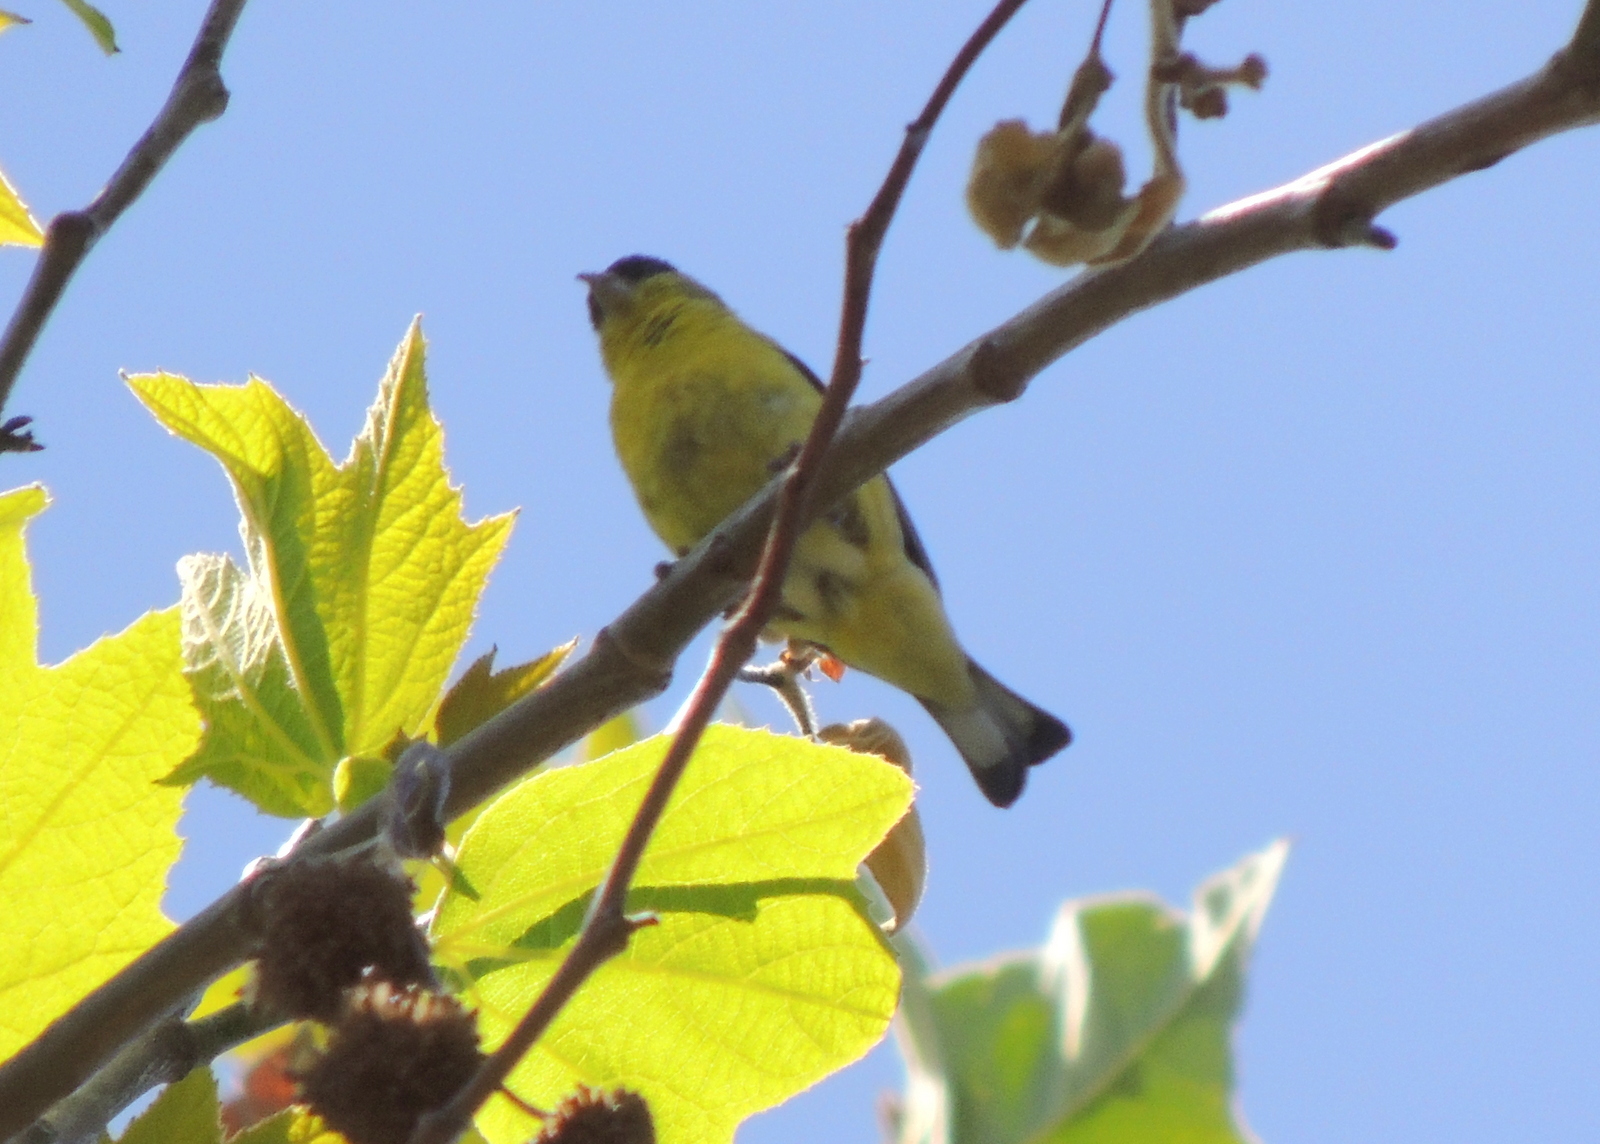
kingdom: Animalia
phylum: Chordata
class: Aves
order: Passeriformes
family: Fringillidae
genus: Spinus
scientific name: Spinus psaltria
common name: Lesser goldfinch
